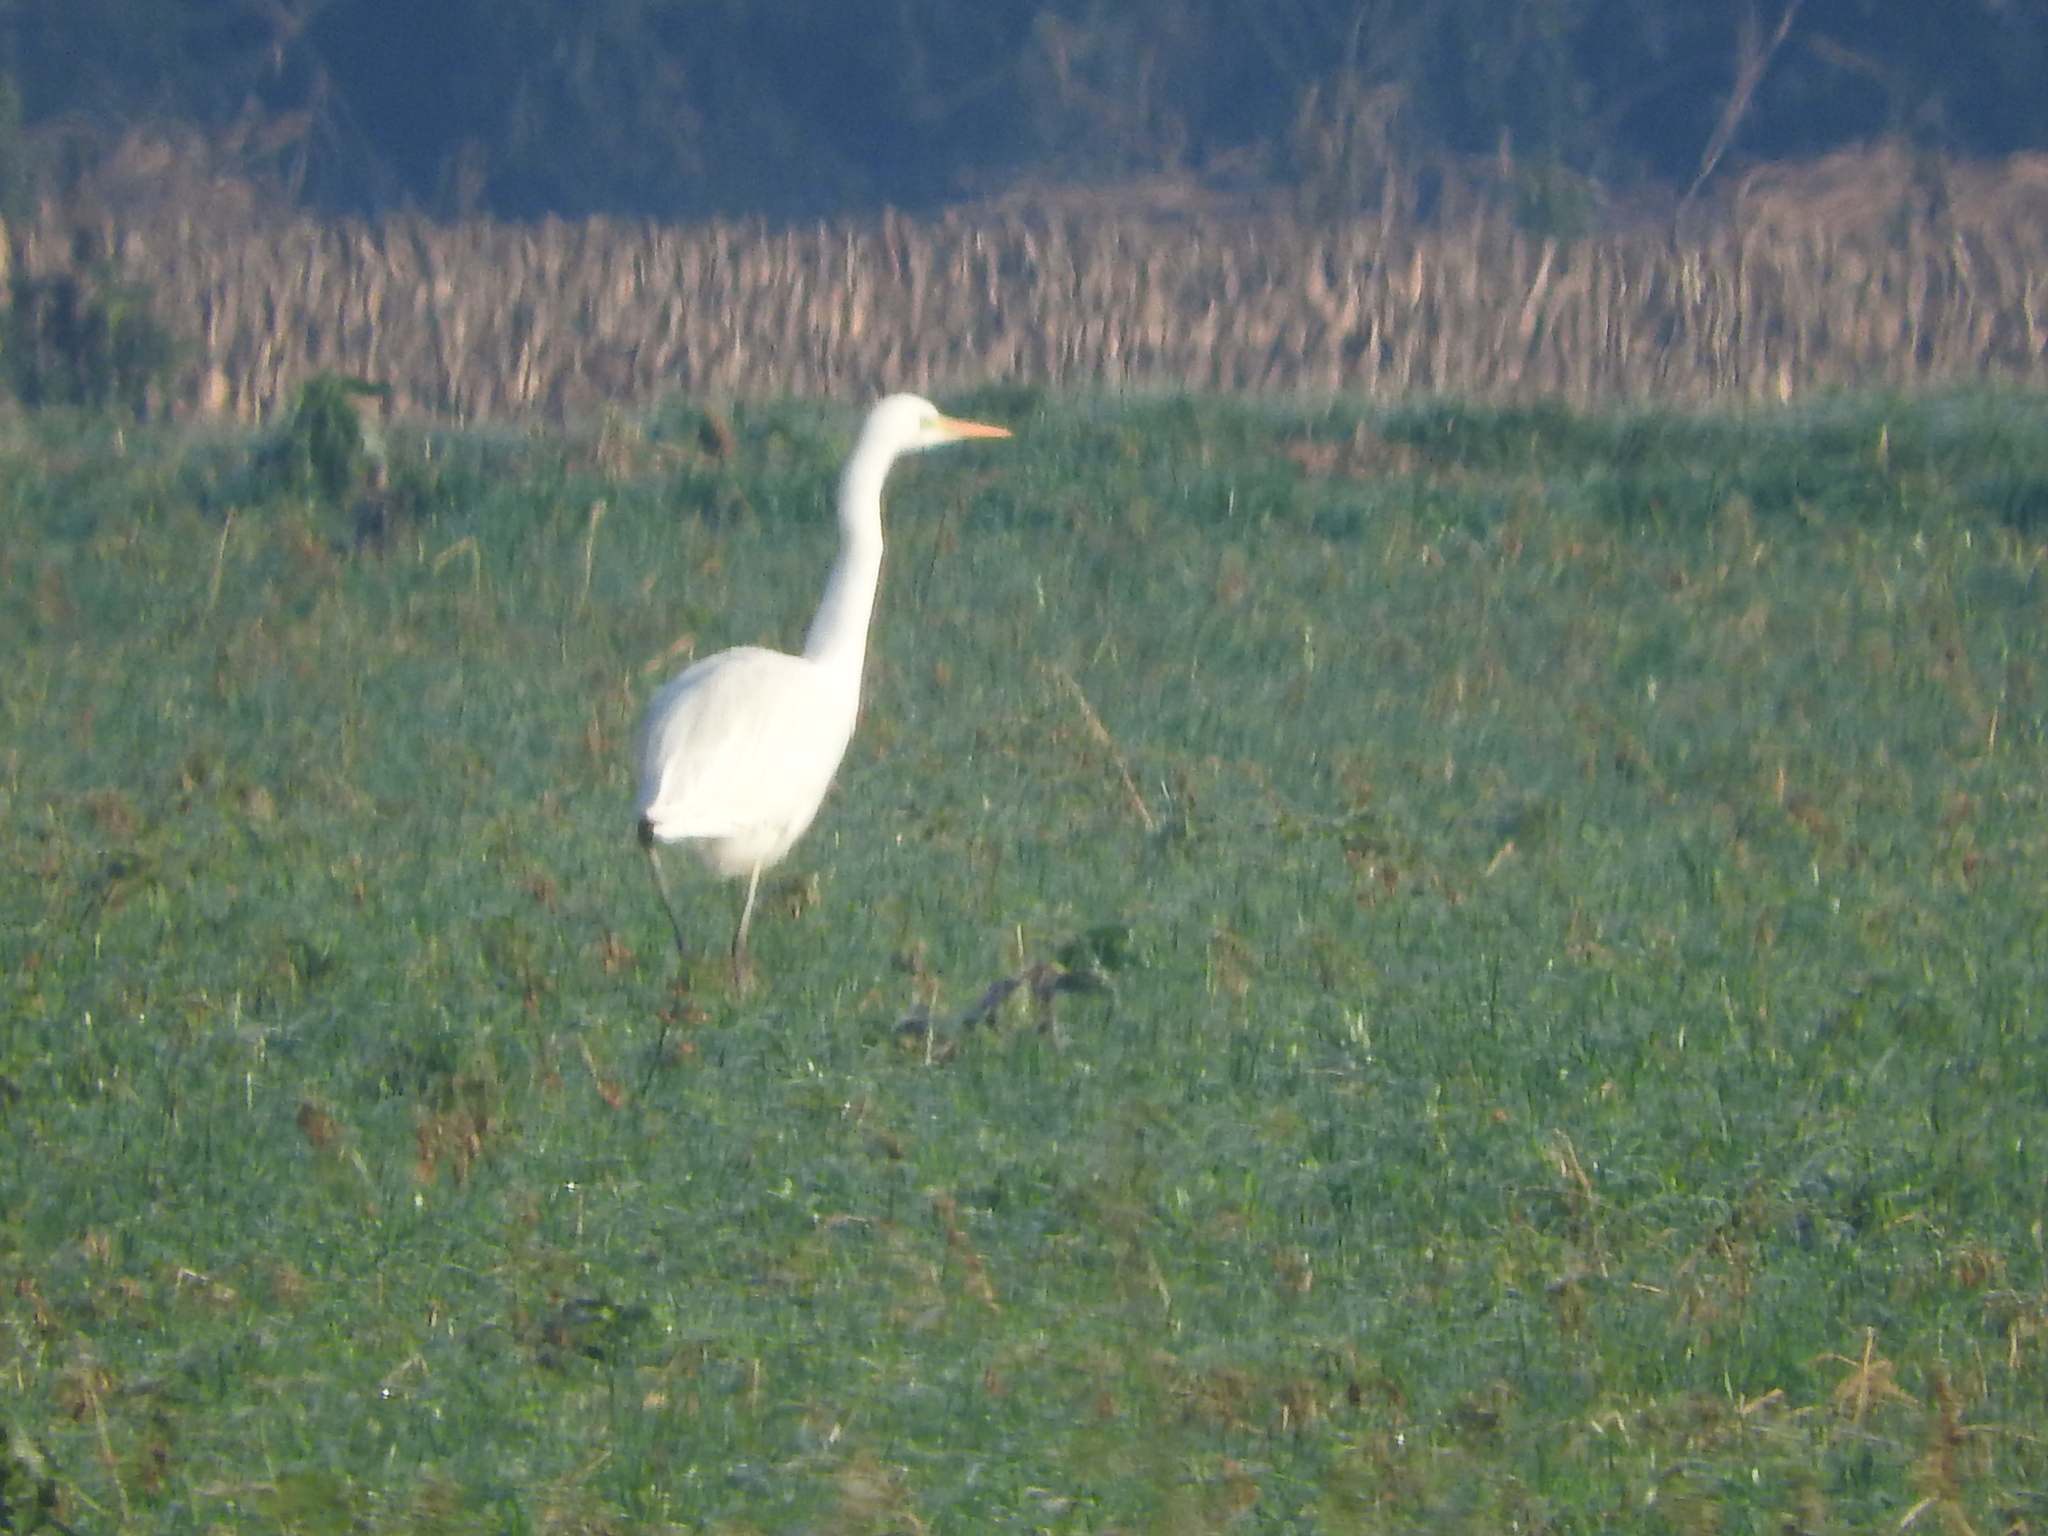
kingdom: Animalia
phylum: Chordata
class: Aves
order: Pelecaniformes
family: Ardeidae
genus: Ardea
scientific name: Ardea alba
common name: Great egret
